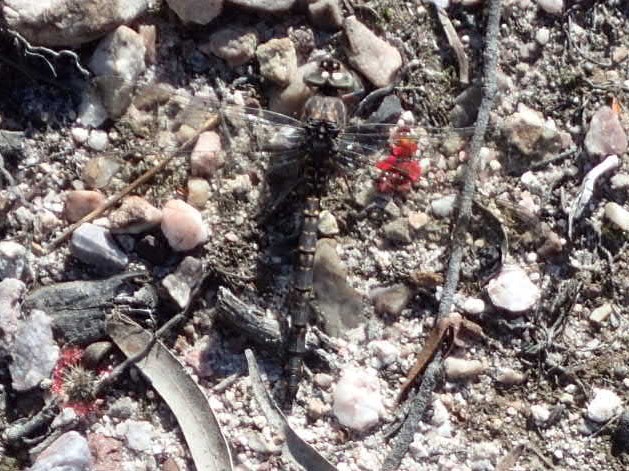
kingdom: Animalia
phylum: Arthropoda
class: Insecta
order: Odonata
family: Aeshnidae
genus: Austroaeschna
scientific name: Austroaeschna parvistigma
